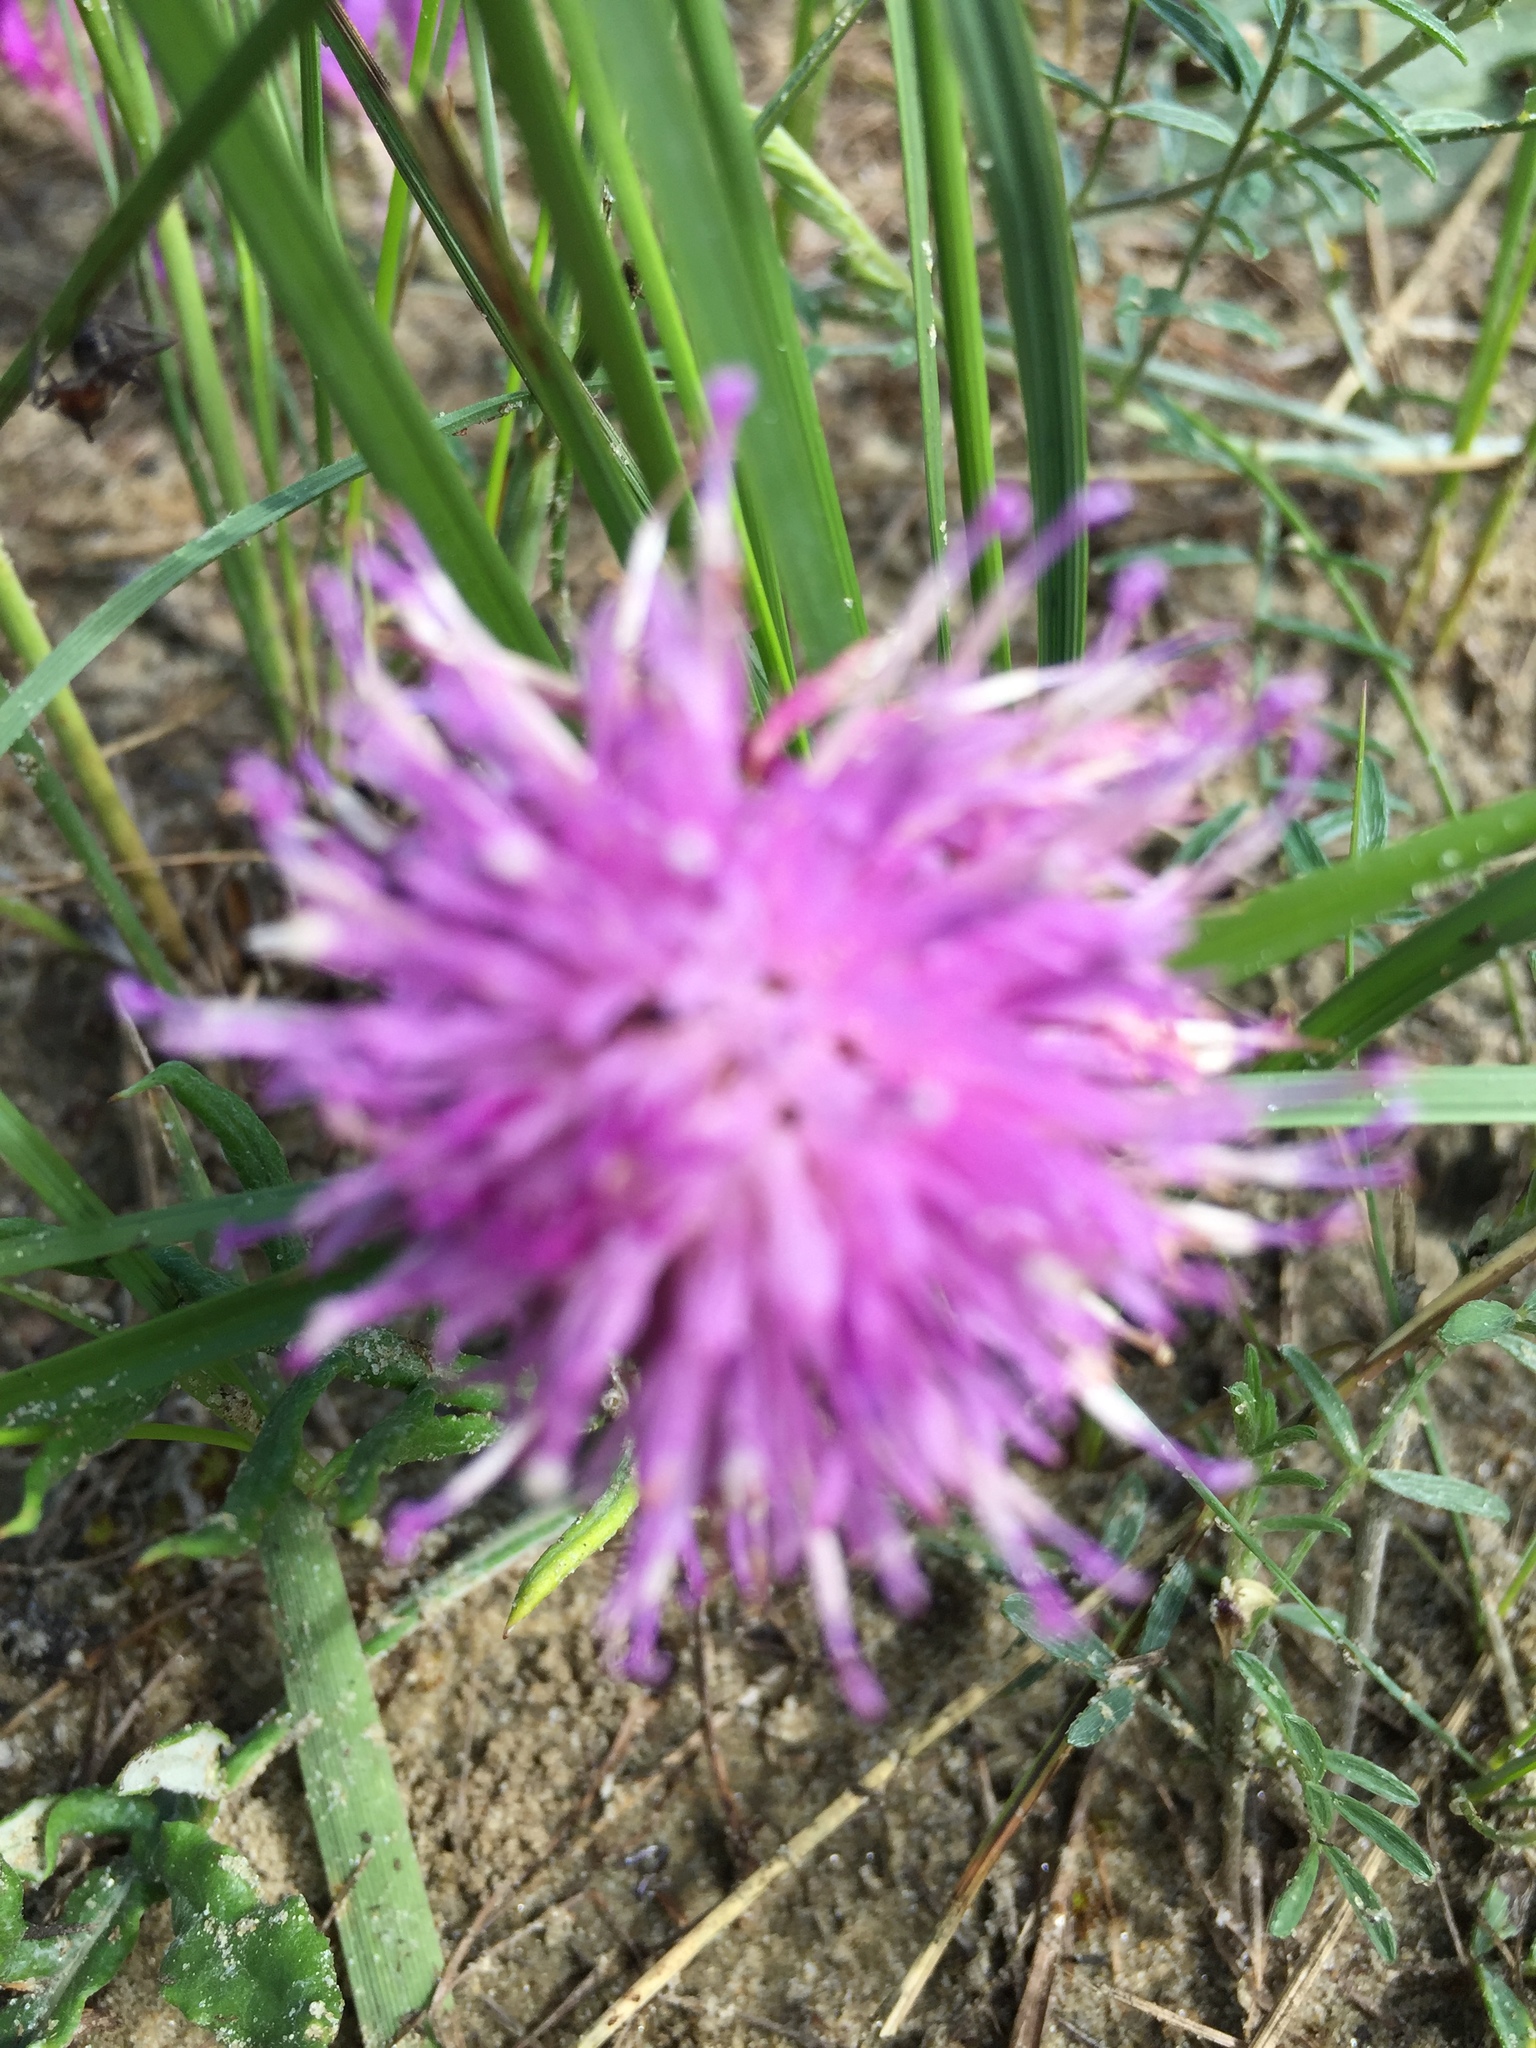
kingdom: Plantae
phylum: Tracheophyta
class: Magnoliopsida
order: Asterales
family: Asteraceae
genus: Jurinea
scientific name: Jurinea cyanoides
